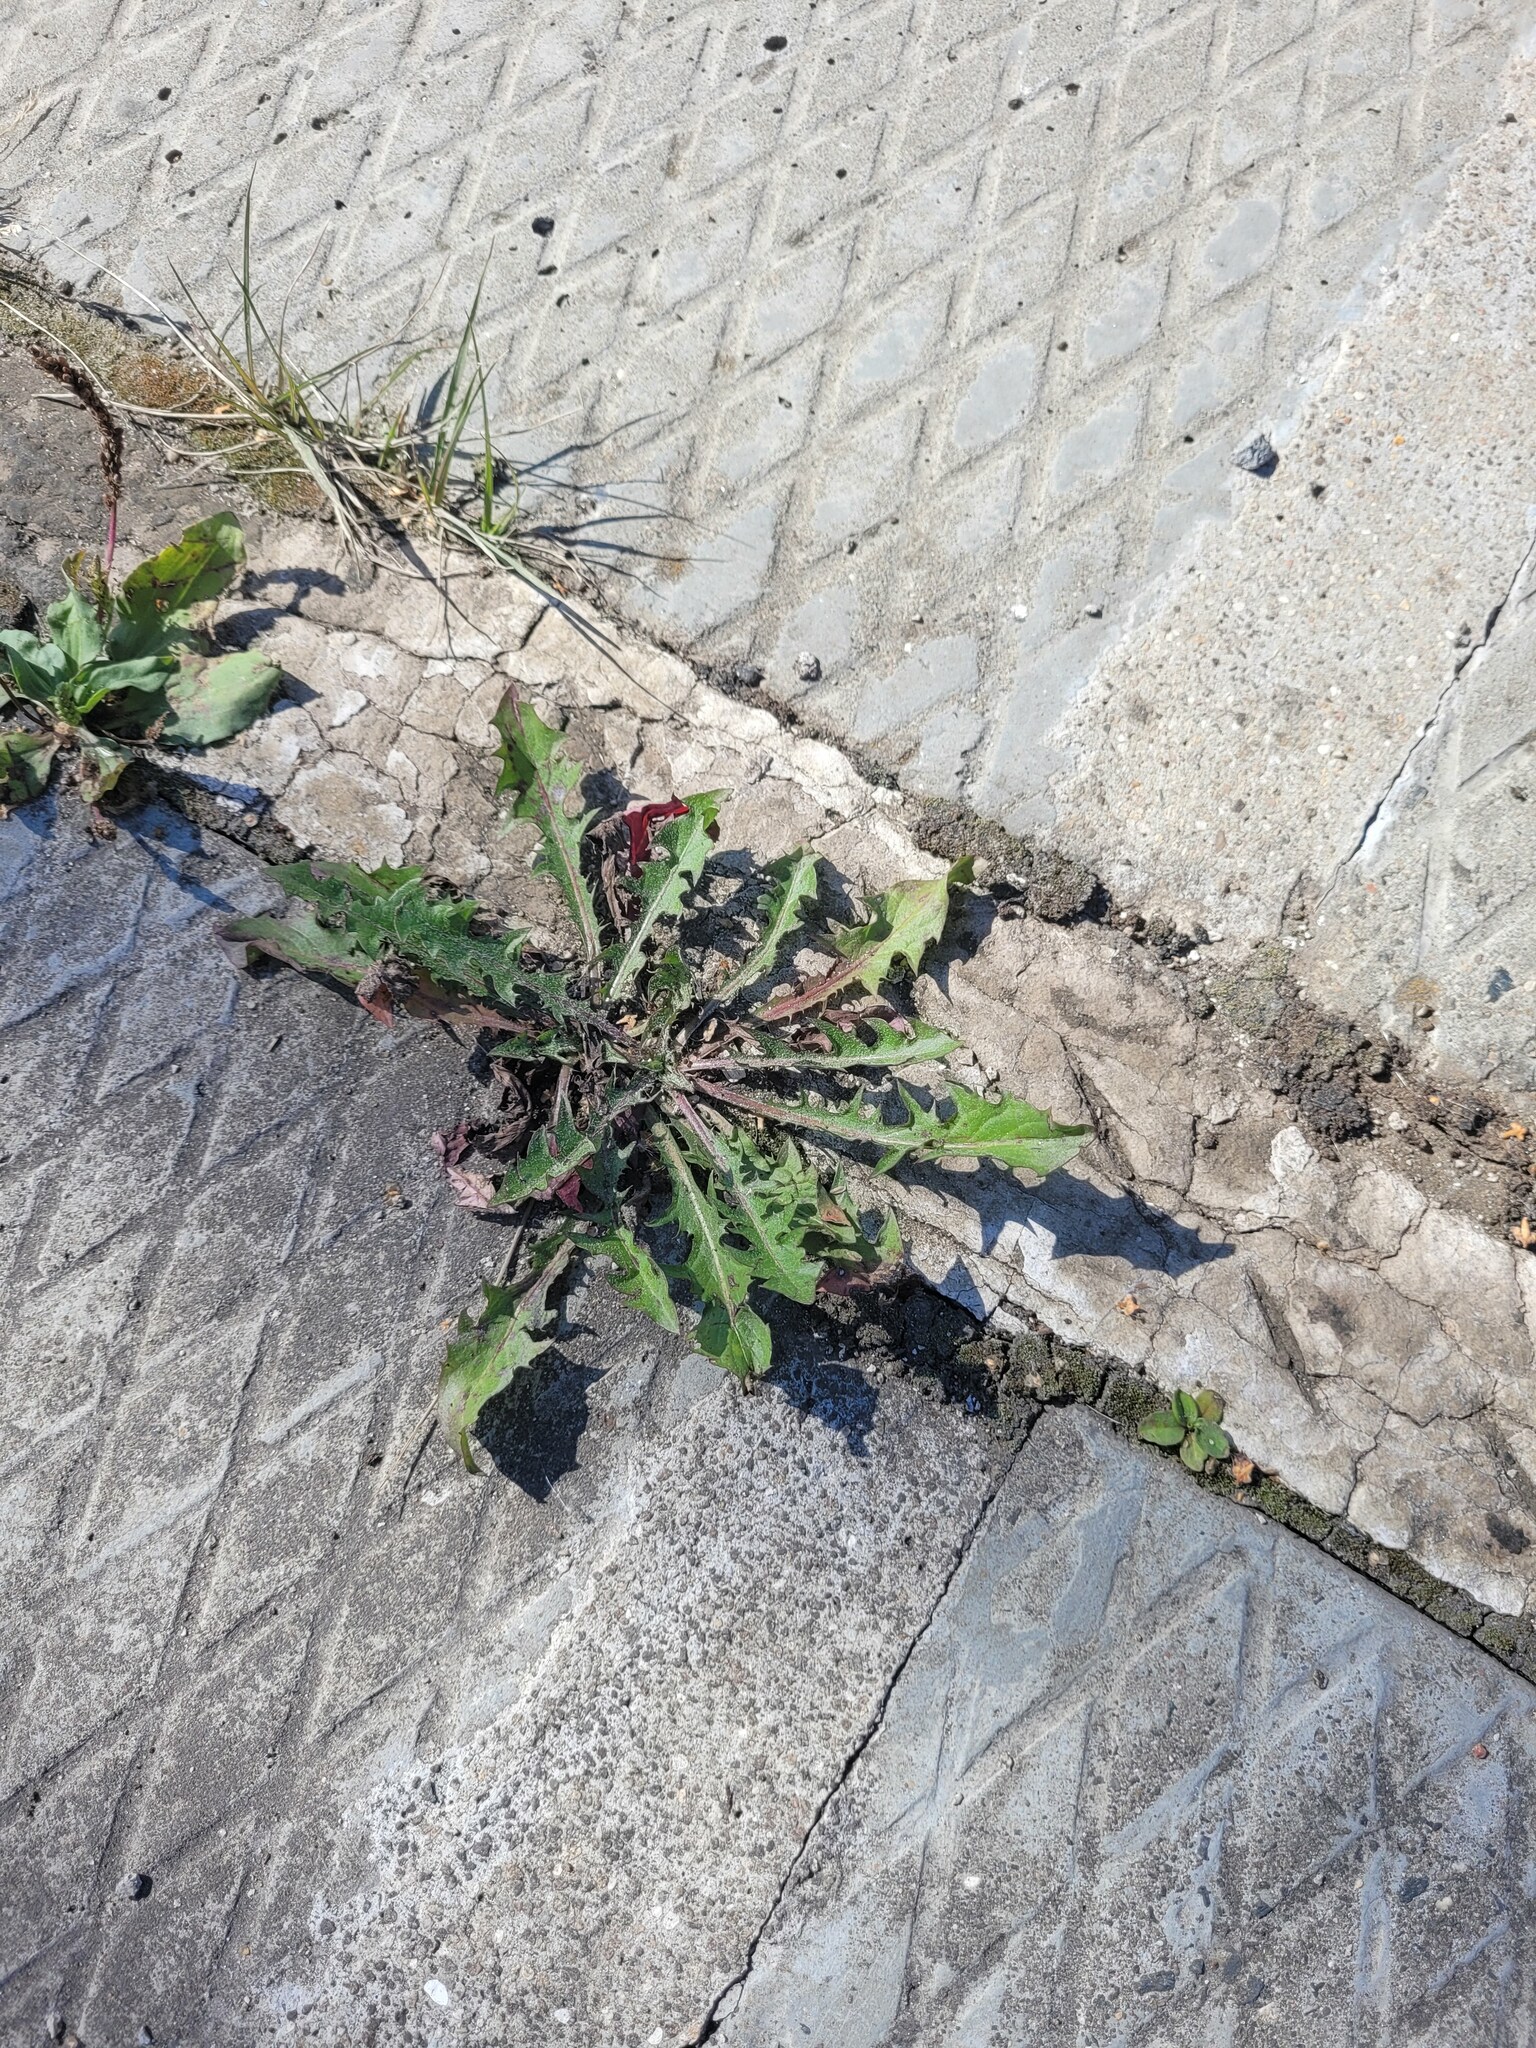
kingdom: Plantae
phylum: Tracheophyta
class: Magnoliopsida
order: Asterales
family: Asteraceae
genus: Taraxacum
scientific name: Taraxacum officinale
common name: Common dandelion
